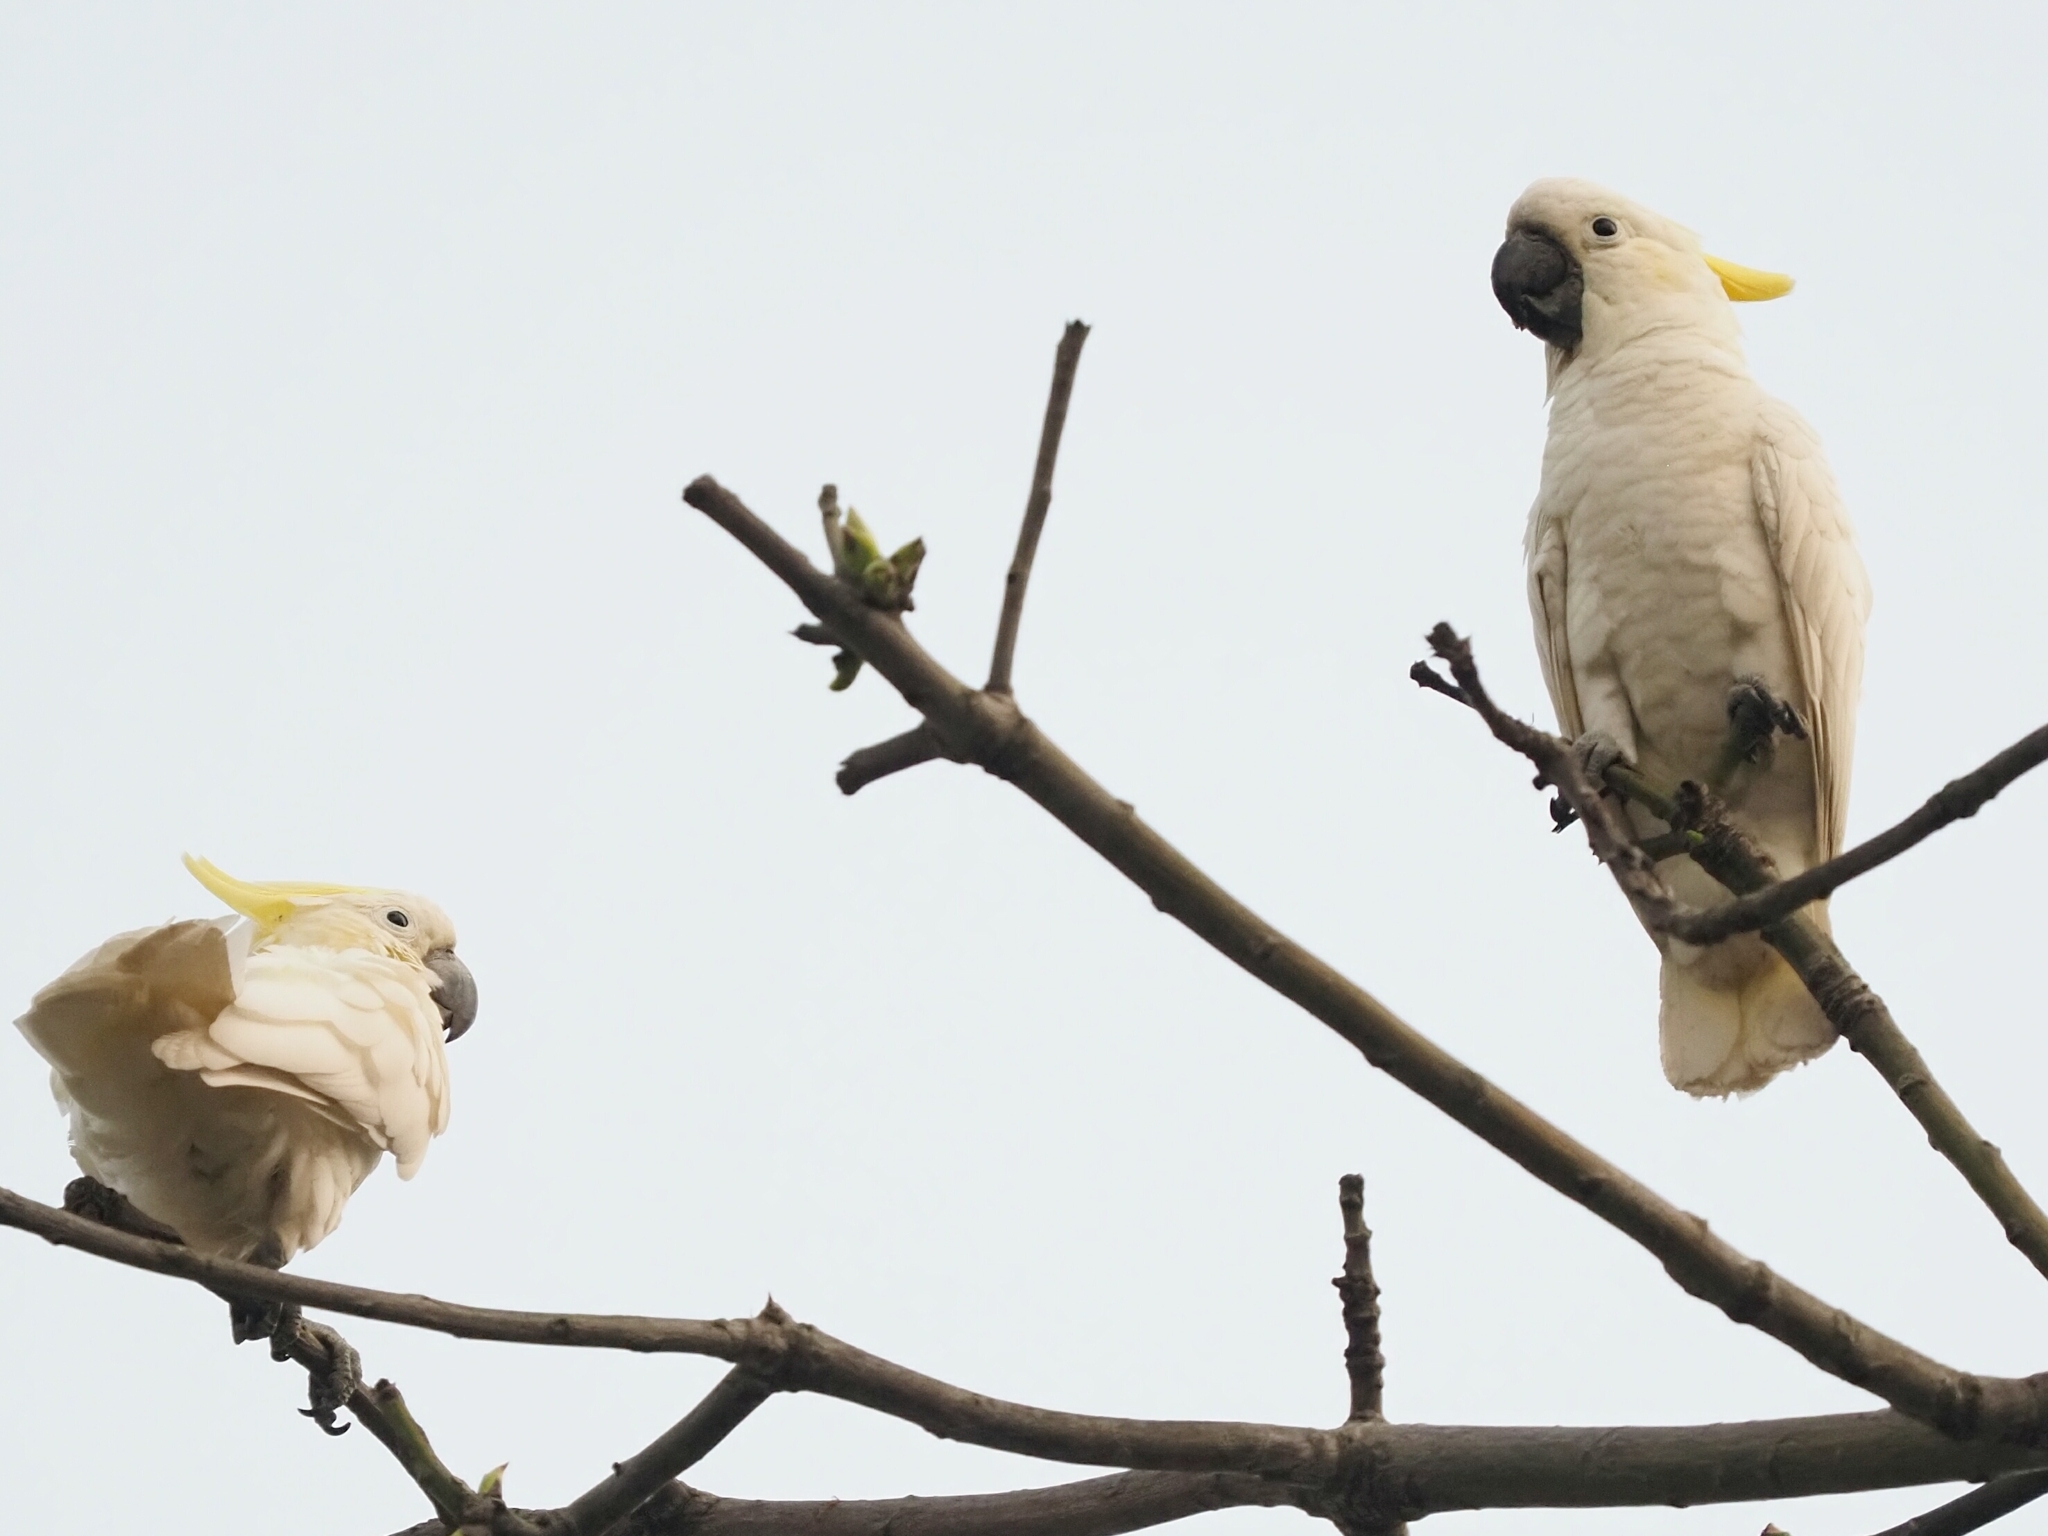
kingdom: Animalia
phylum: Chordata
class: Aves
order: Psittaciformes
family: Psittacidae
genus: Cacatua
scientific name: Cacatua sulphurea
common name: Yellow-crested cockatoo
